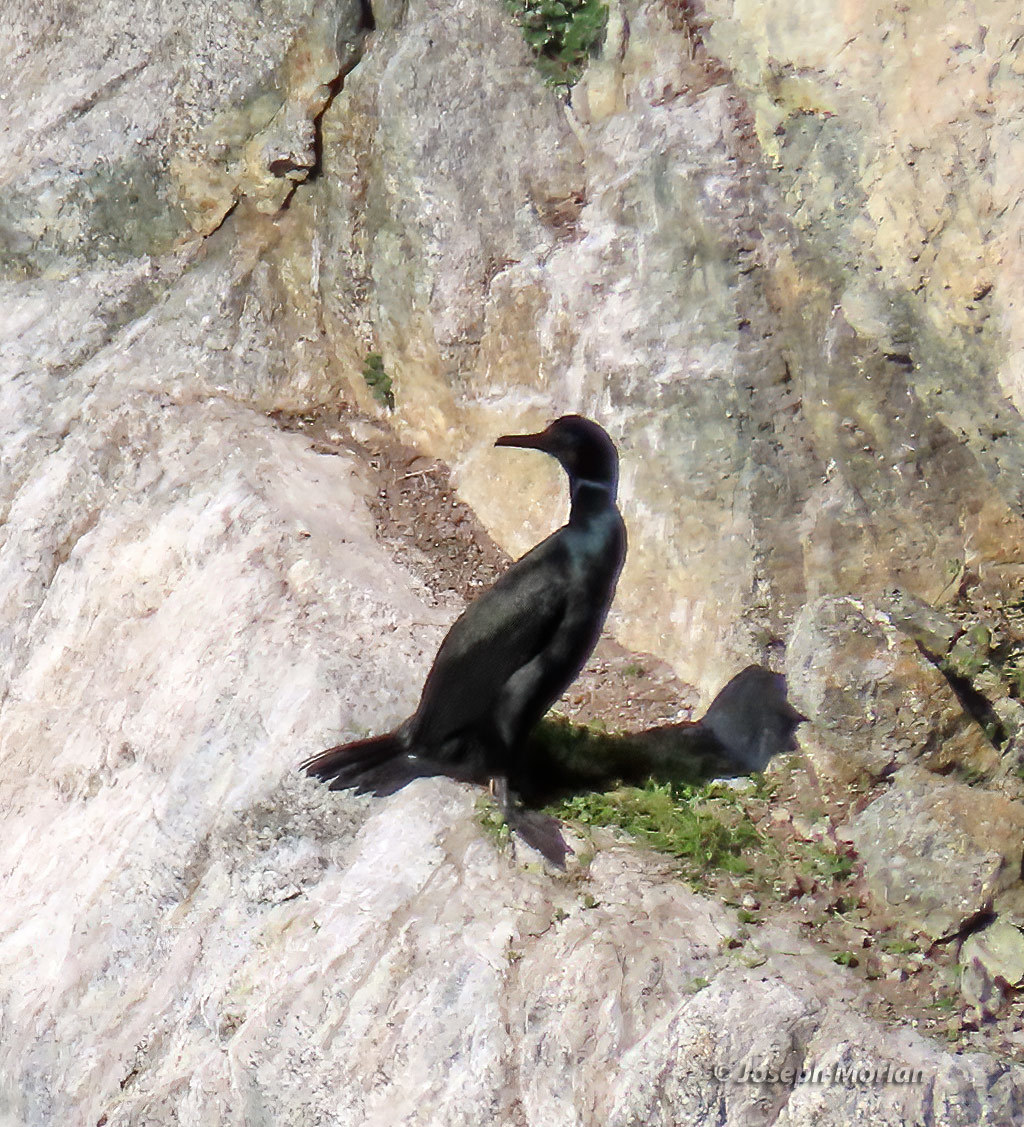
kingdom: Animalia
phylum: Chordata
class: Aves
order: Suliformes
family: Phalacrocoracidae
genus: Urile
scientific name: Urile penicillatus
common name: Brandt's cormorant
